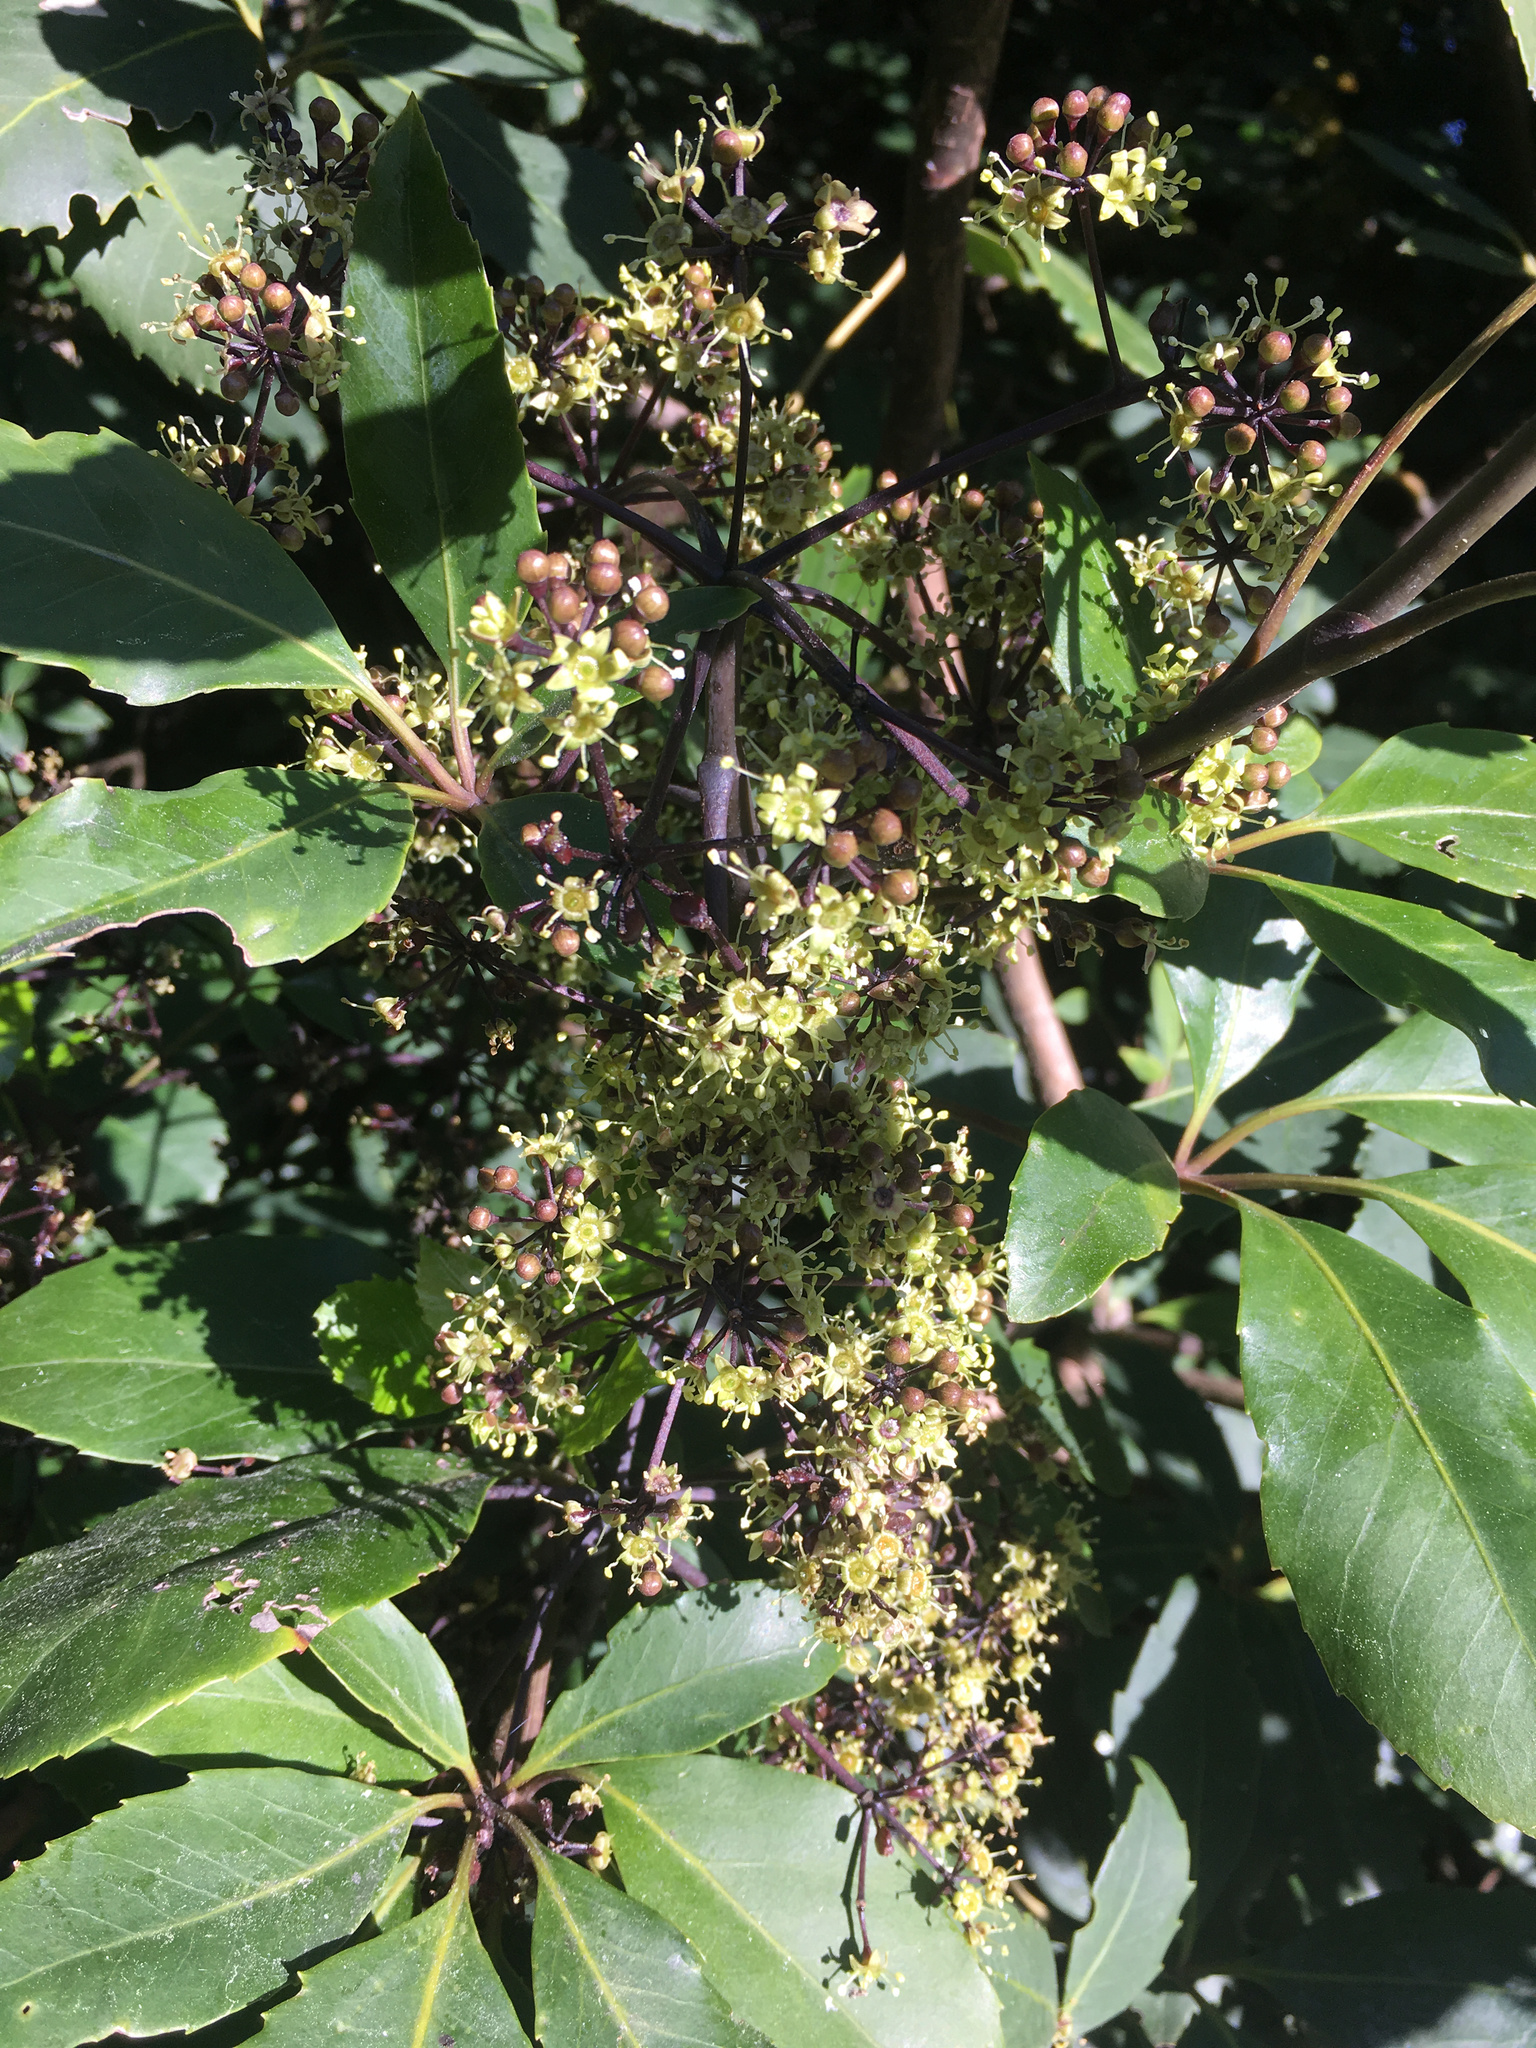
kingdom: Plantae
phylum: Tracheophyta
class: Magnoliopsida
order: Apiales
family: Araliaceae
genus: Neopanax
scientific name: Neopanax arboreus
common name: Five-fingers
